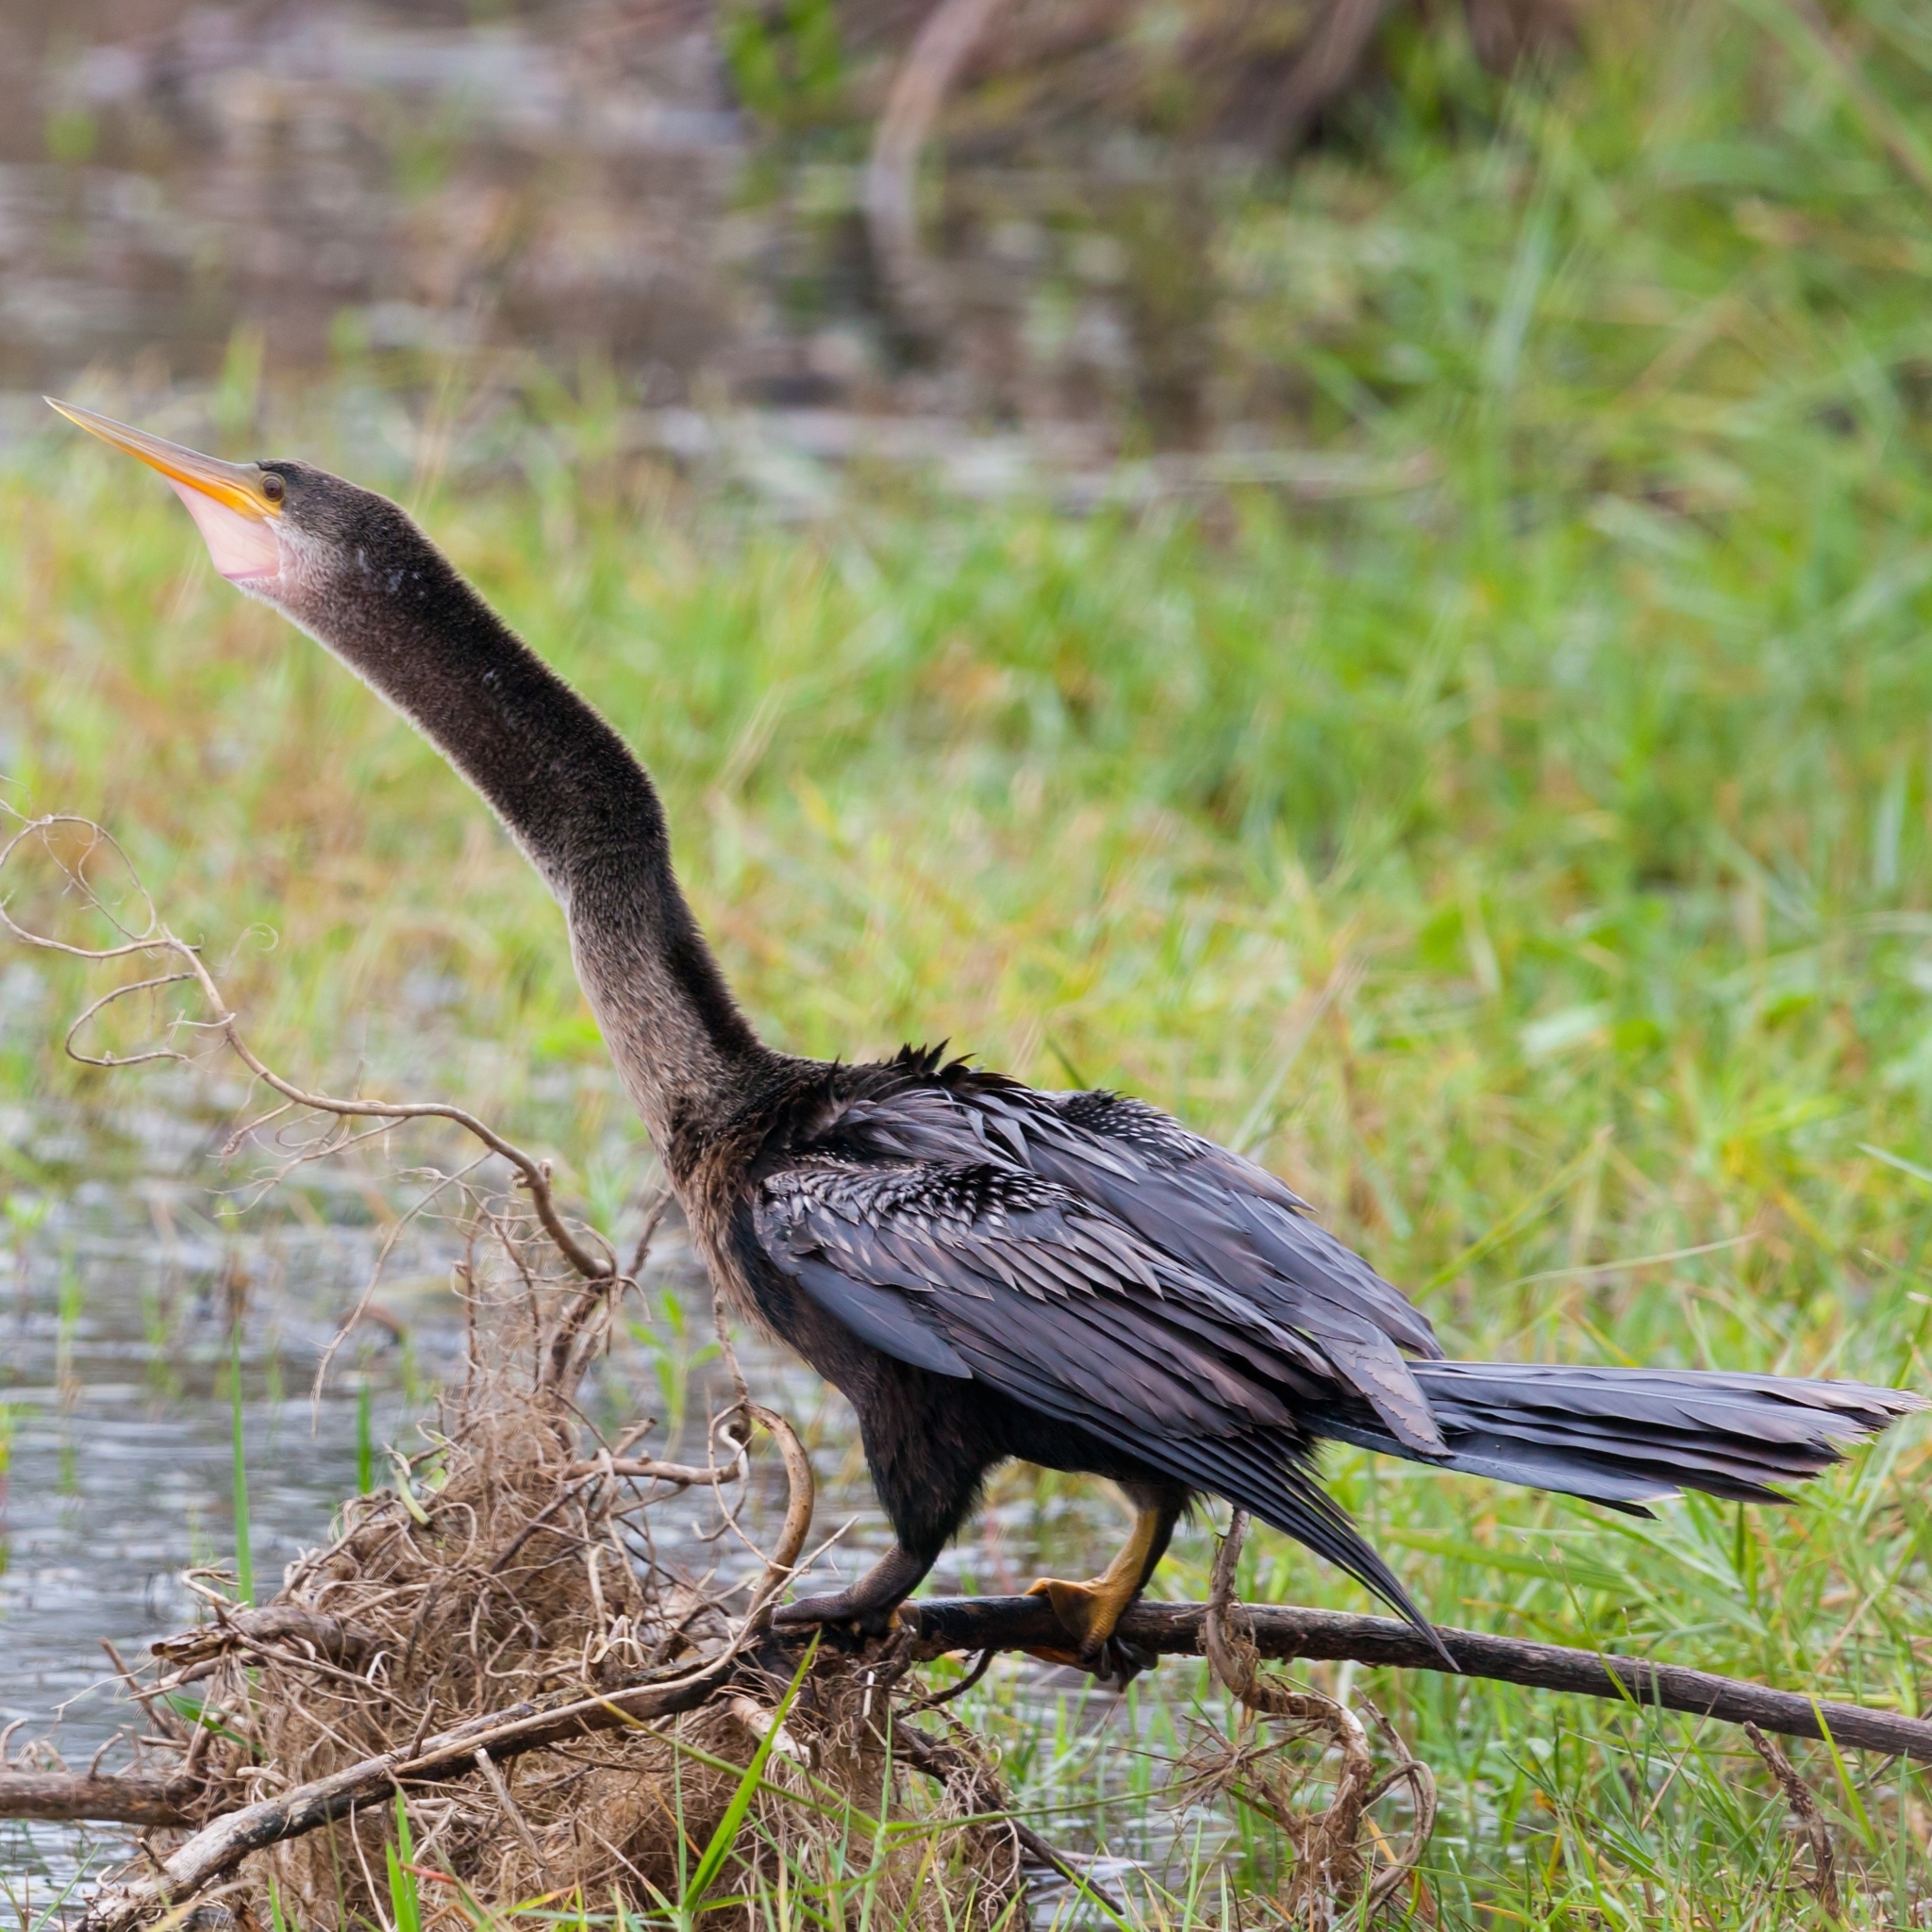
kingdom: Animalia
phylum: Chordata
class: Aves
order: Suliformes
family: Anhingidae
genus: Anhinga
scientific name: Anhinga anhinga
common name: Anhinga
